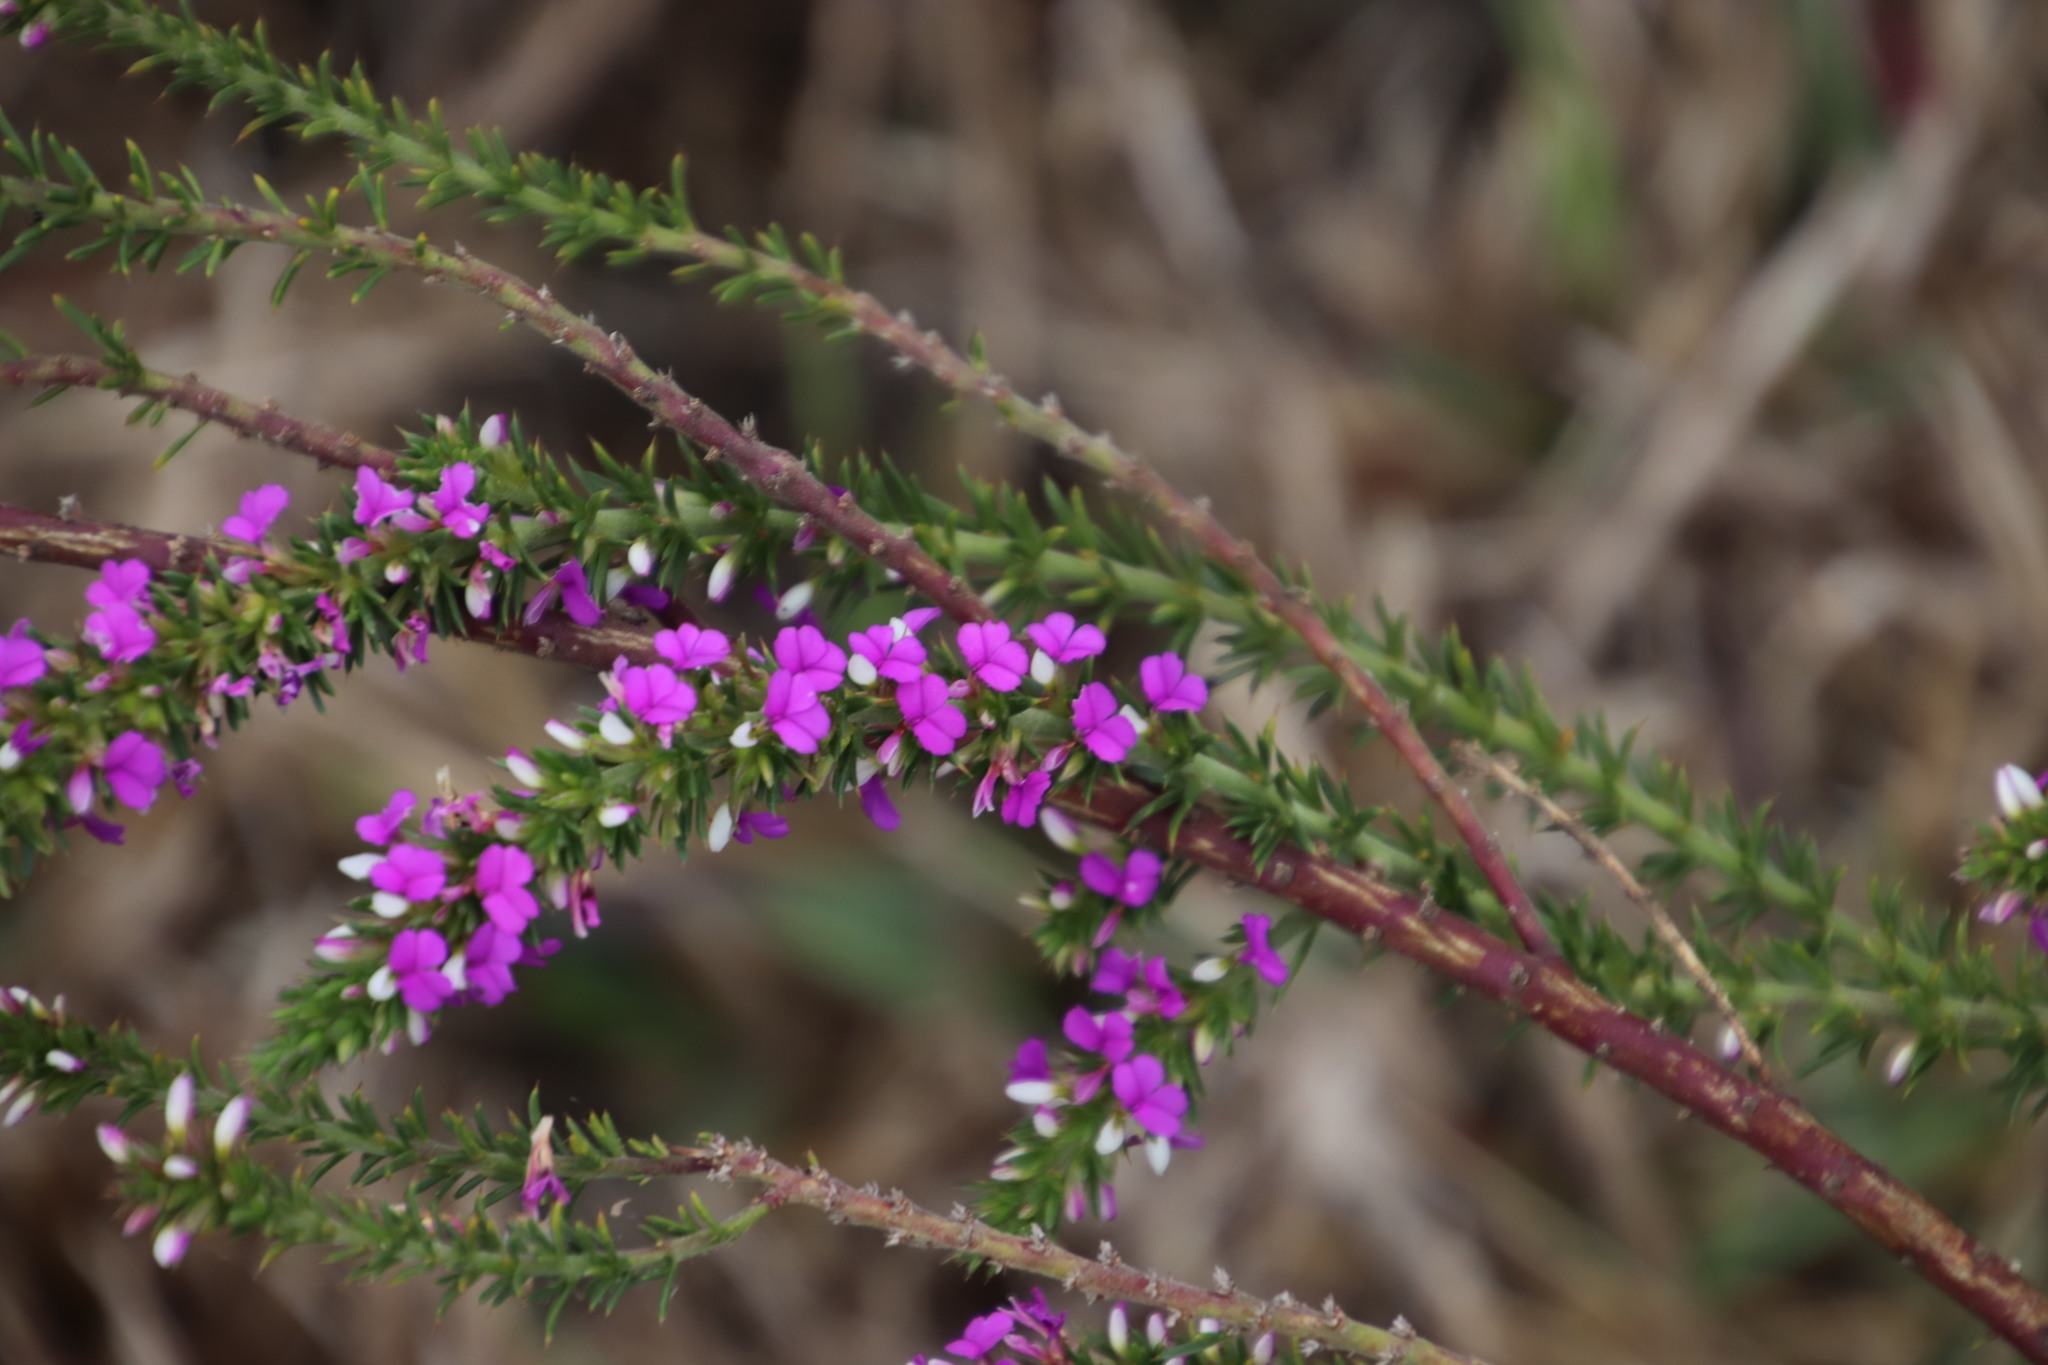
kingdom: Plantae
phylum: Tracheophyta
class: Magnoliopsida
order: Fabales
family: Polygalaceae
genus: Muraltia
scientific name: Muraltia heisteria
